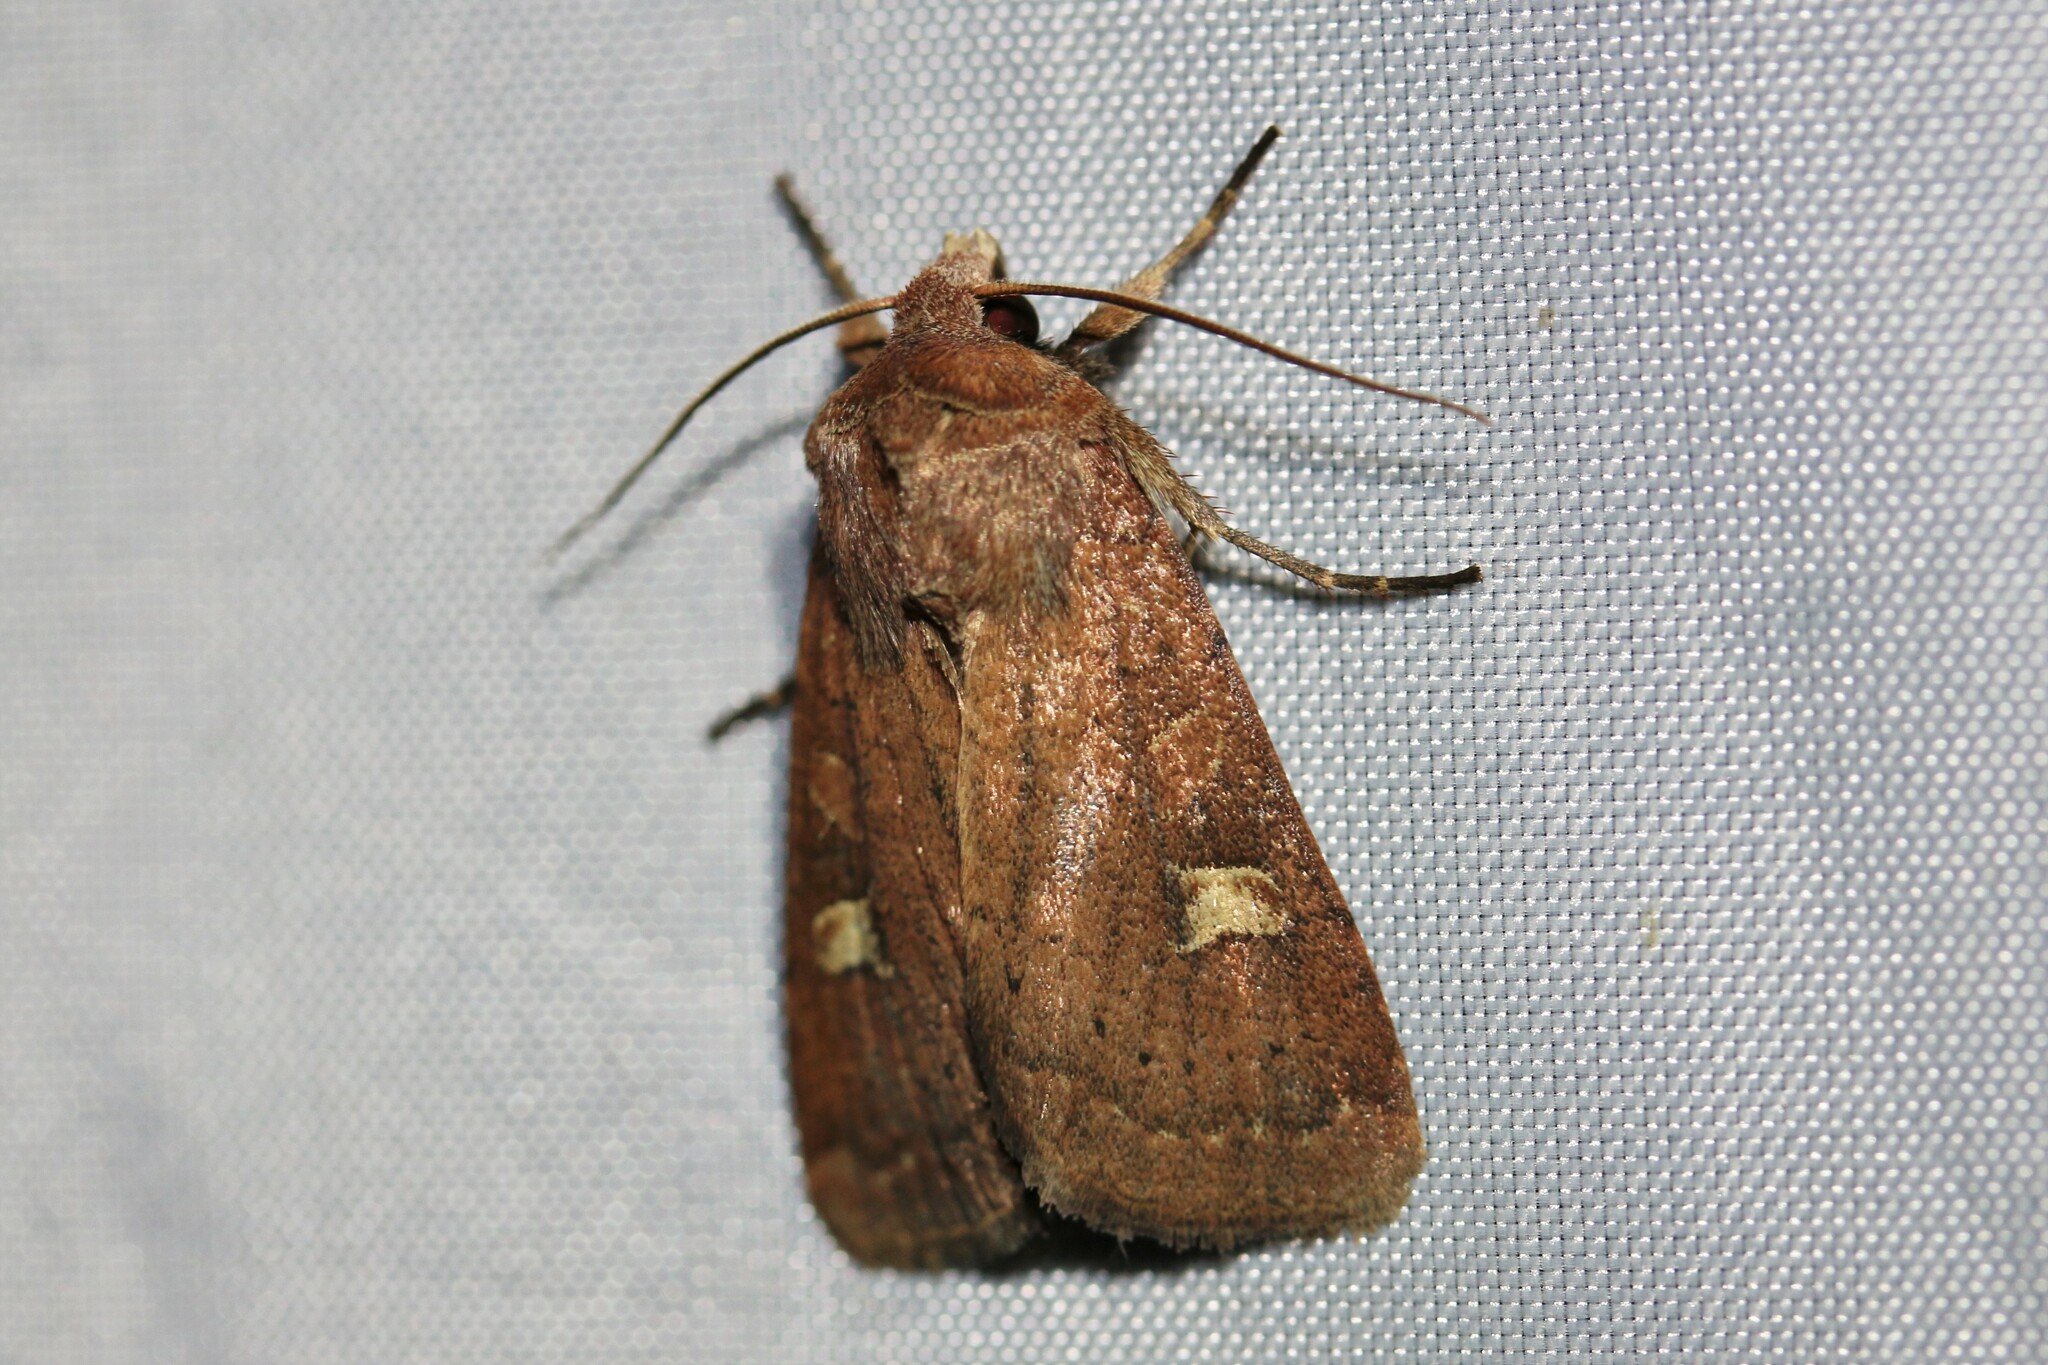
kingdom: Animalia
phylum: Arthropoda
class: Insecta
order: Lepidoptera
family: Noctuidae
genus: Xestia
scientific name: Xestia xanthographa
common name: Square-spot rustic
